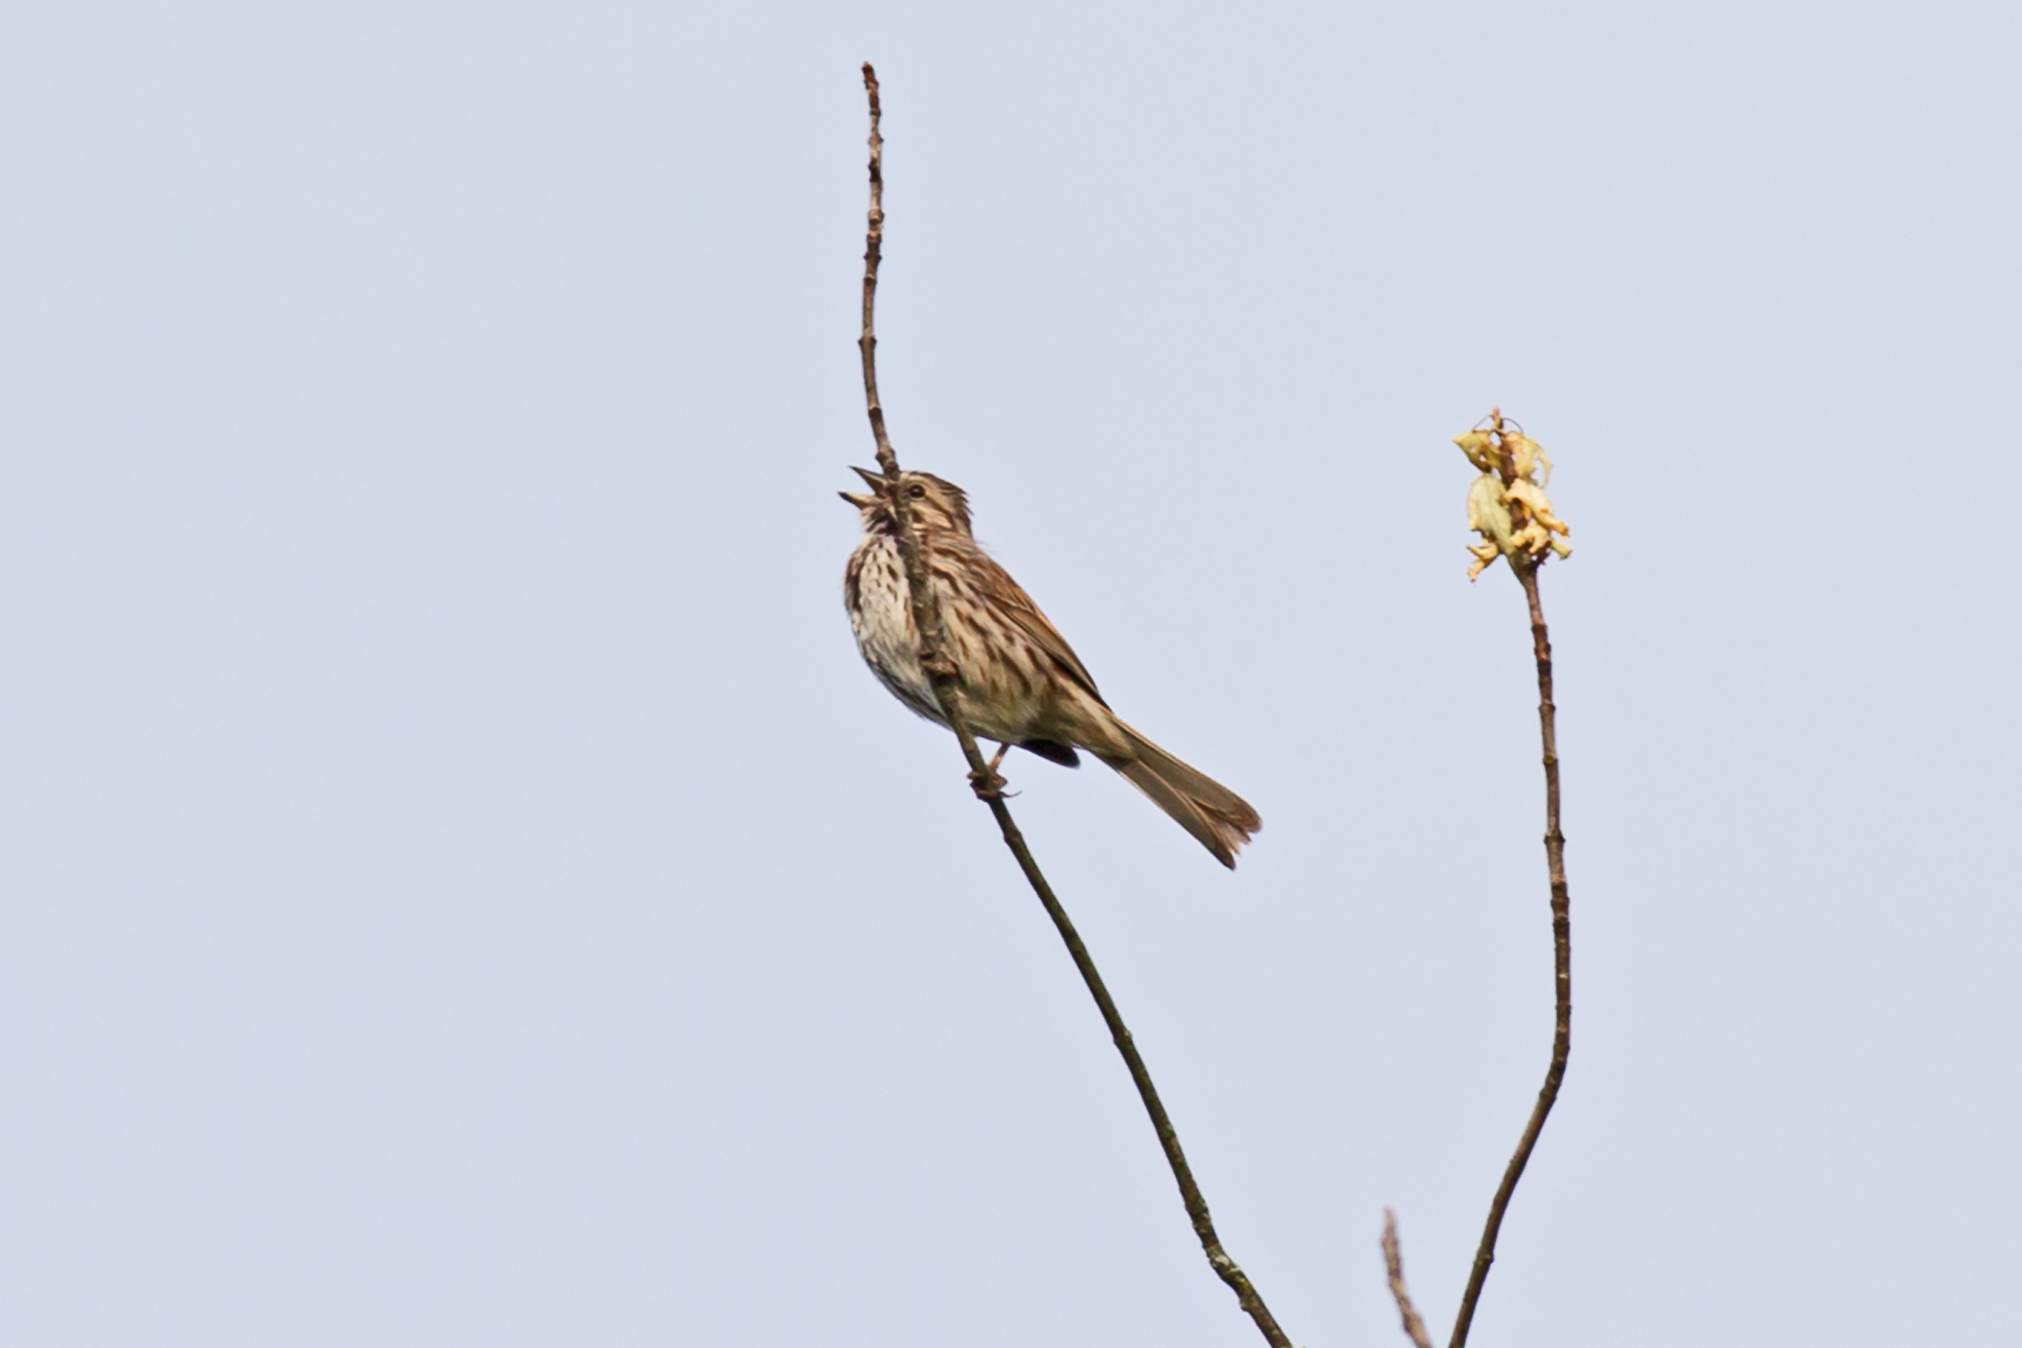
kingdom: Animalia
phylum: Chordata
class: Aves
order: Passeriformes
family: Passerellidae
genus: Melospiza
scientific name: Melospiza melodia
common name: Song sparrow
